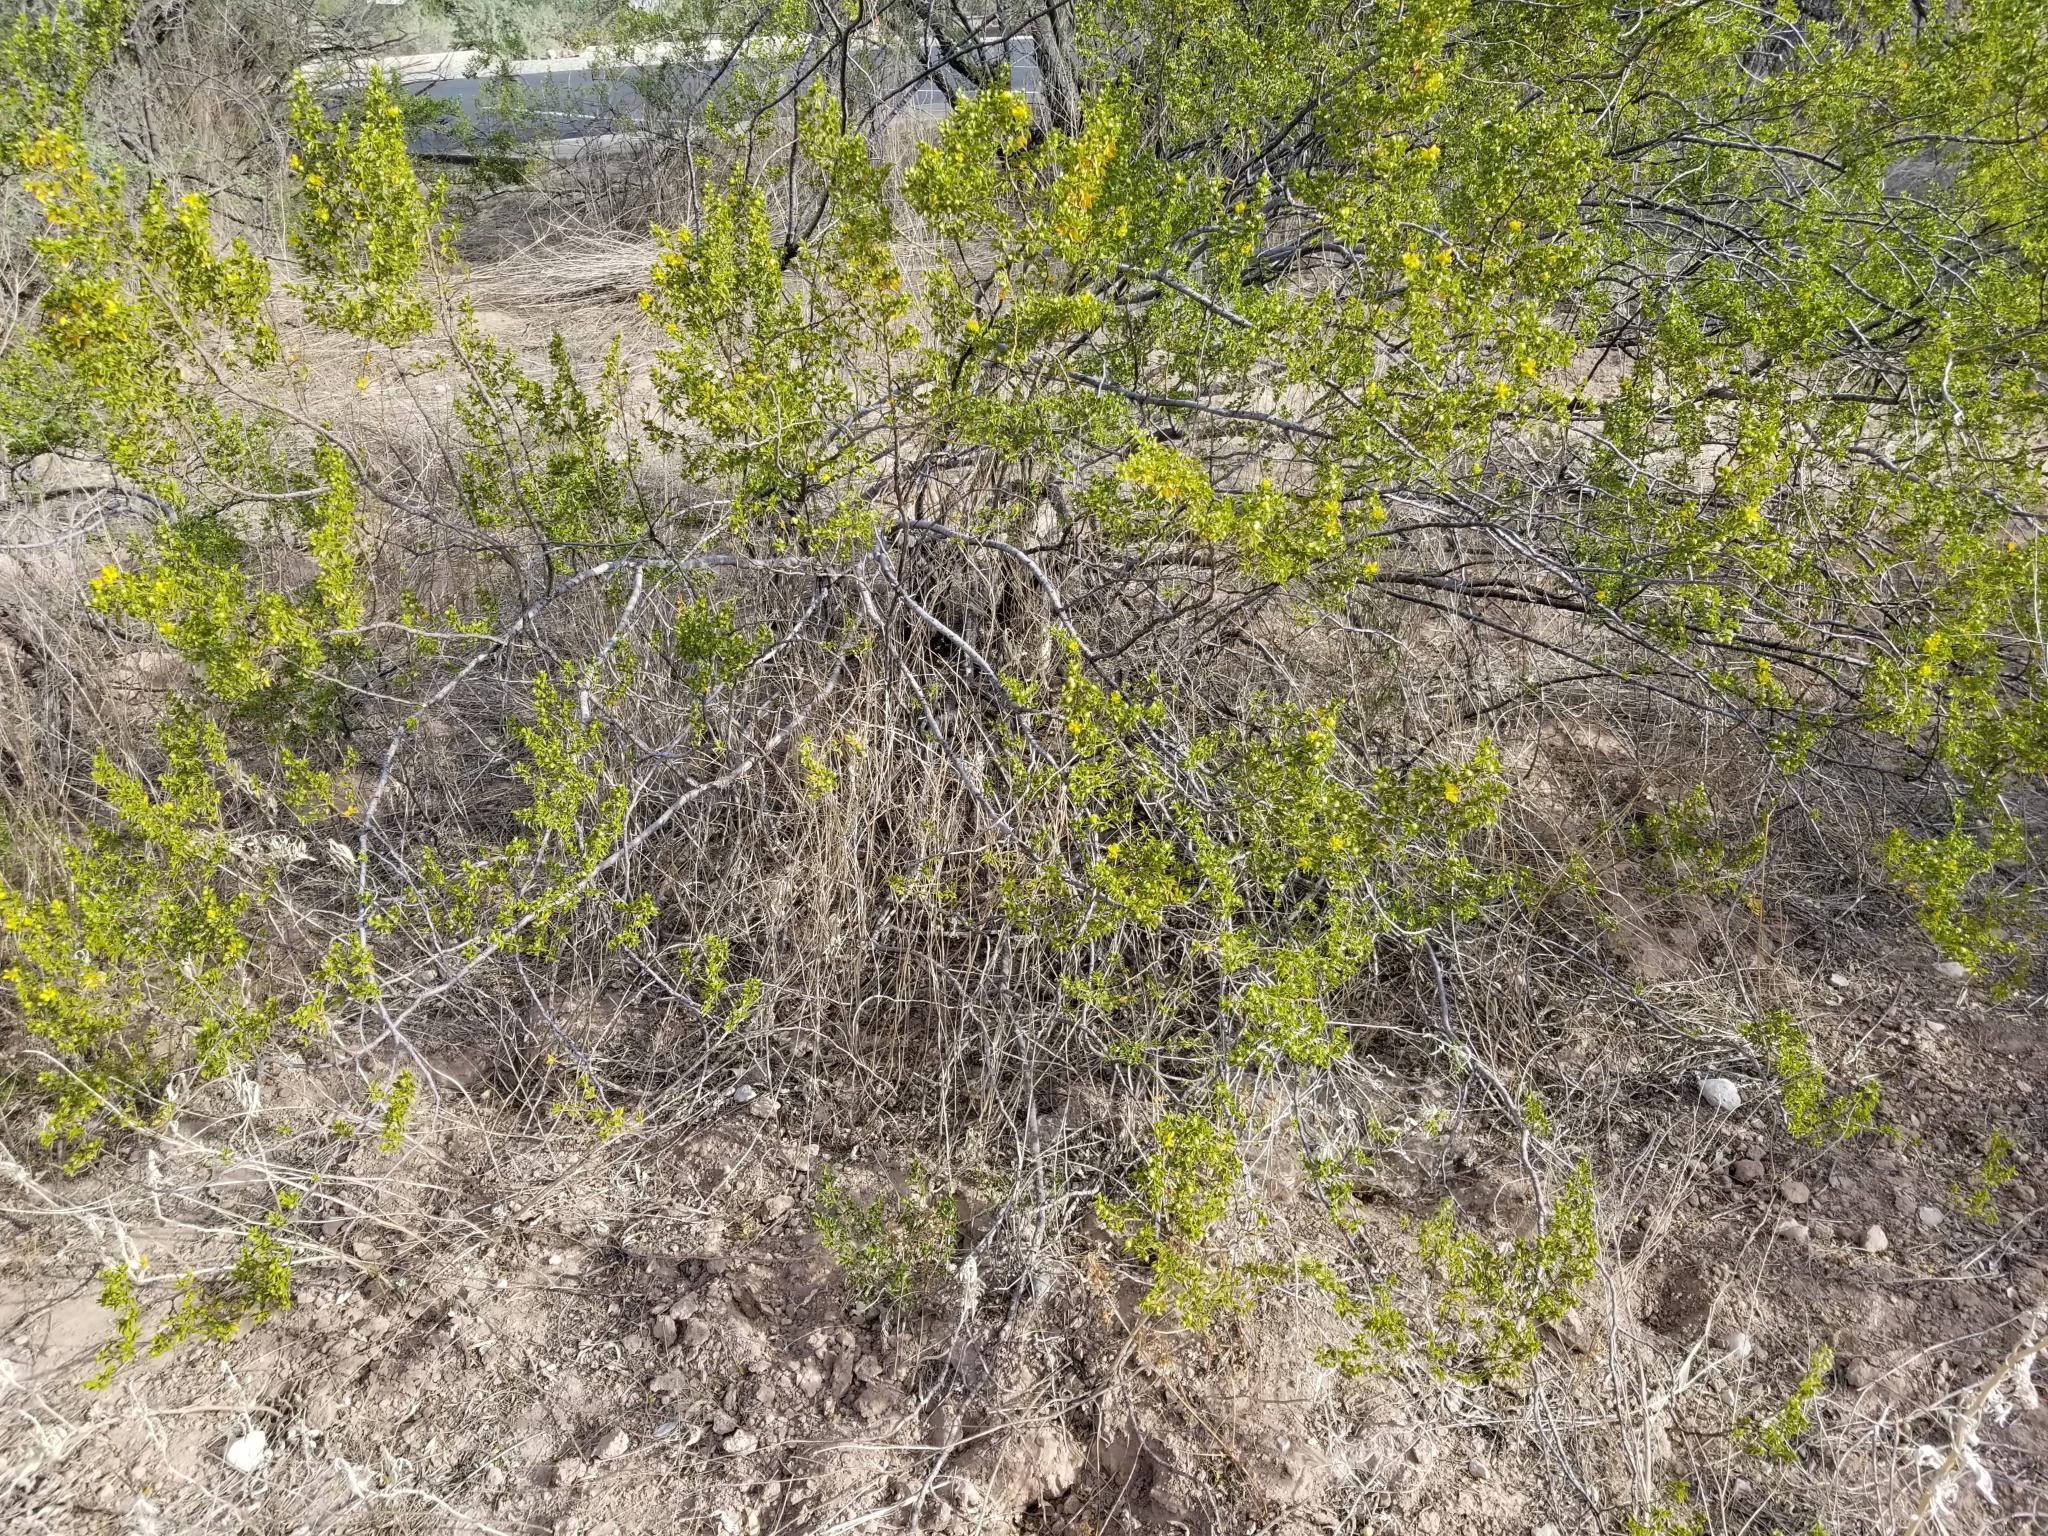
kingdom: Plantae
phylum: Tracheophyta
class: Magnoliopsida
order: Zygophyllales
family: Zygophyllaceae
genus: Larrea
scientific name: Larrea tridentata
